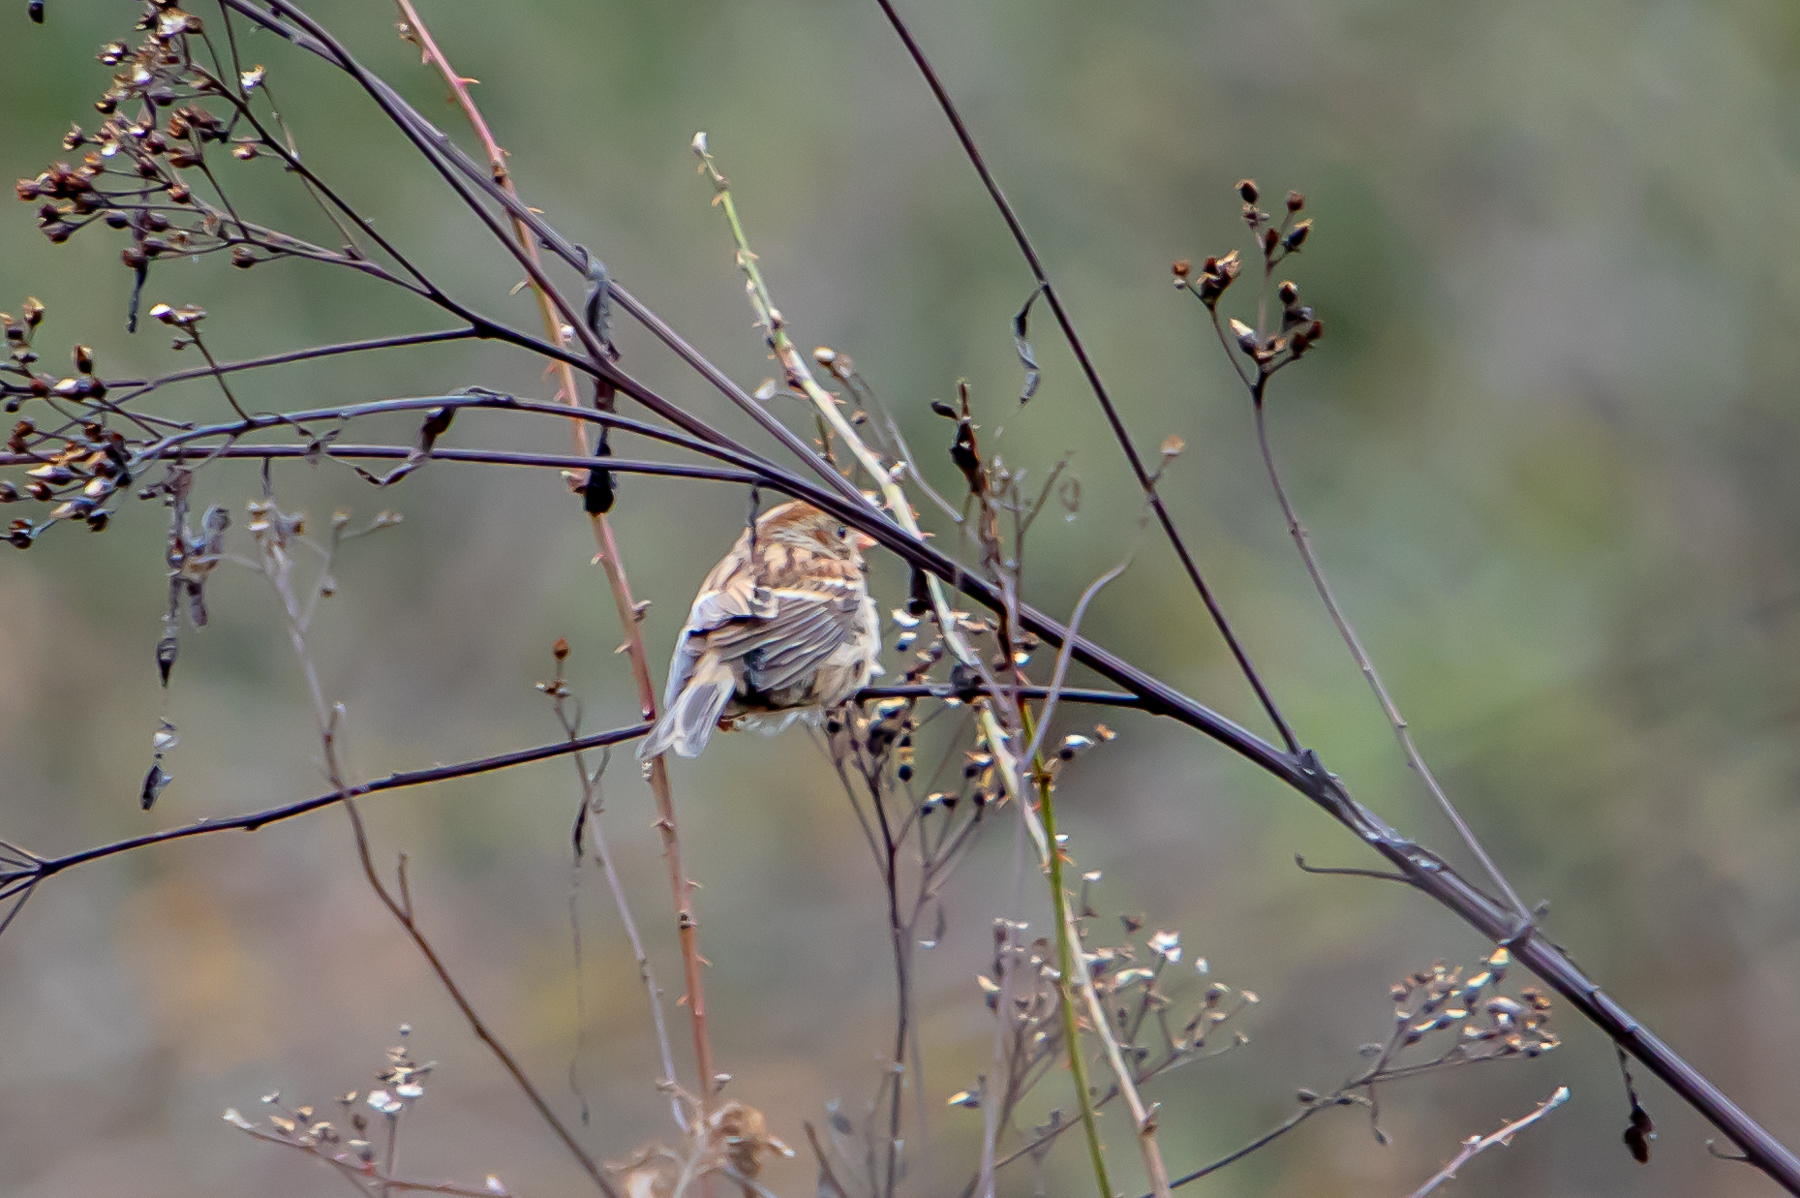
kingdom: Animalia
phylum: Chordata
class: Aves
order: Passeriformes
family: Passerellidae
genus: Spizella
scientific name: Spizella pusilla
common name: Field sparrow
